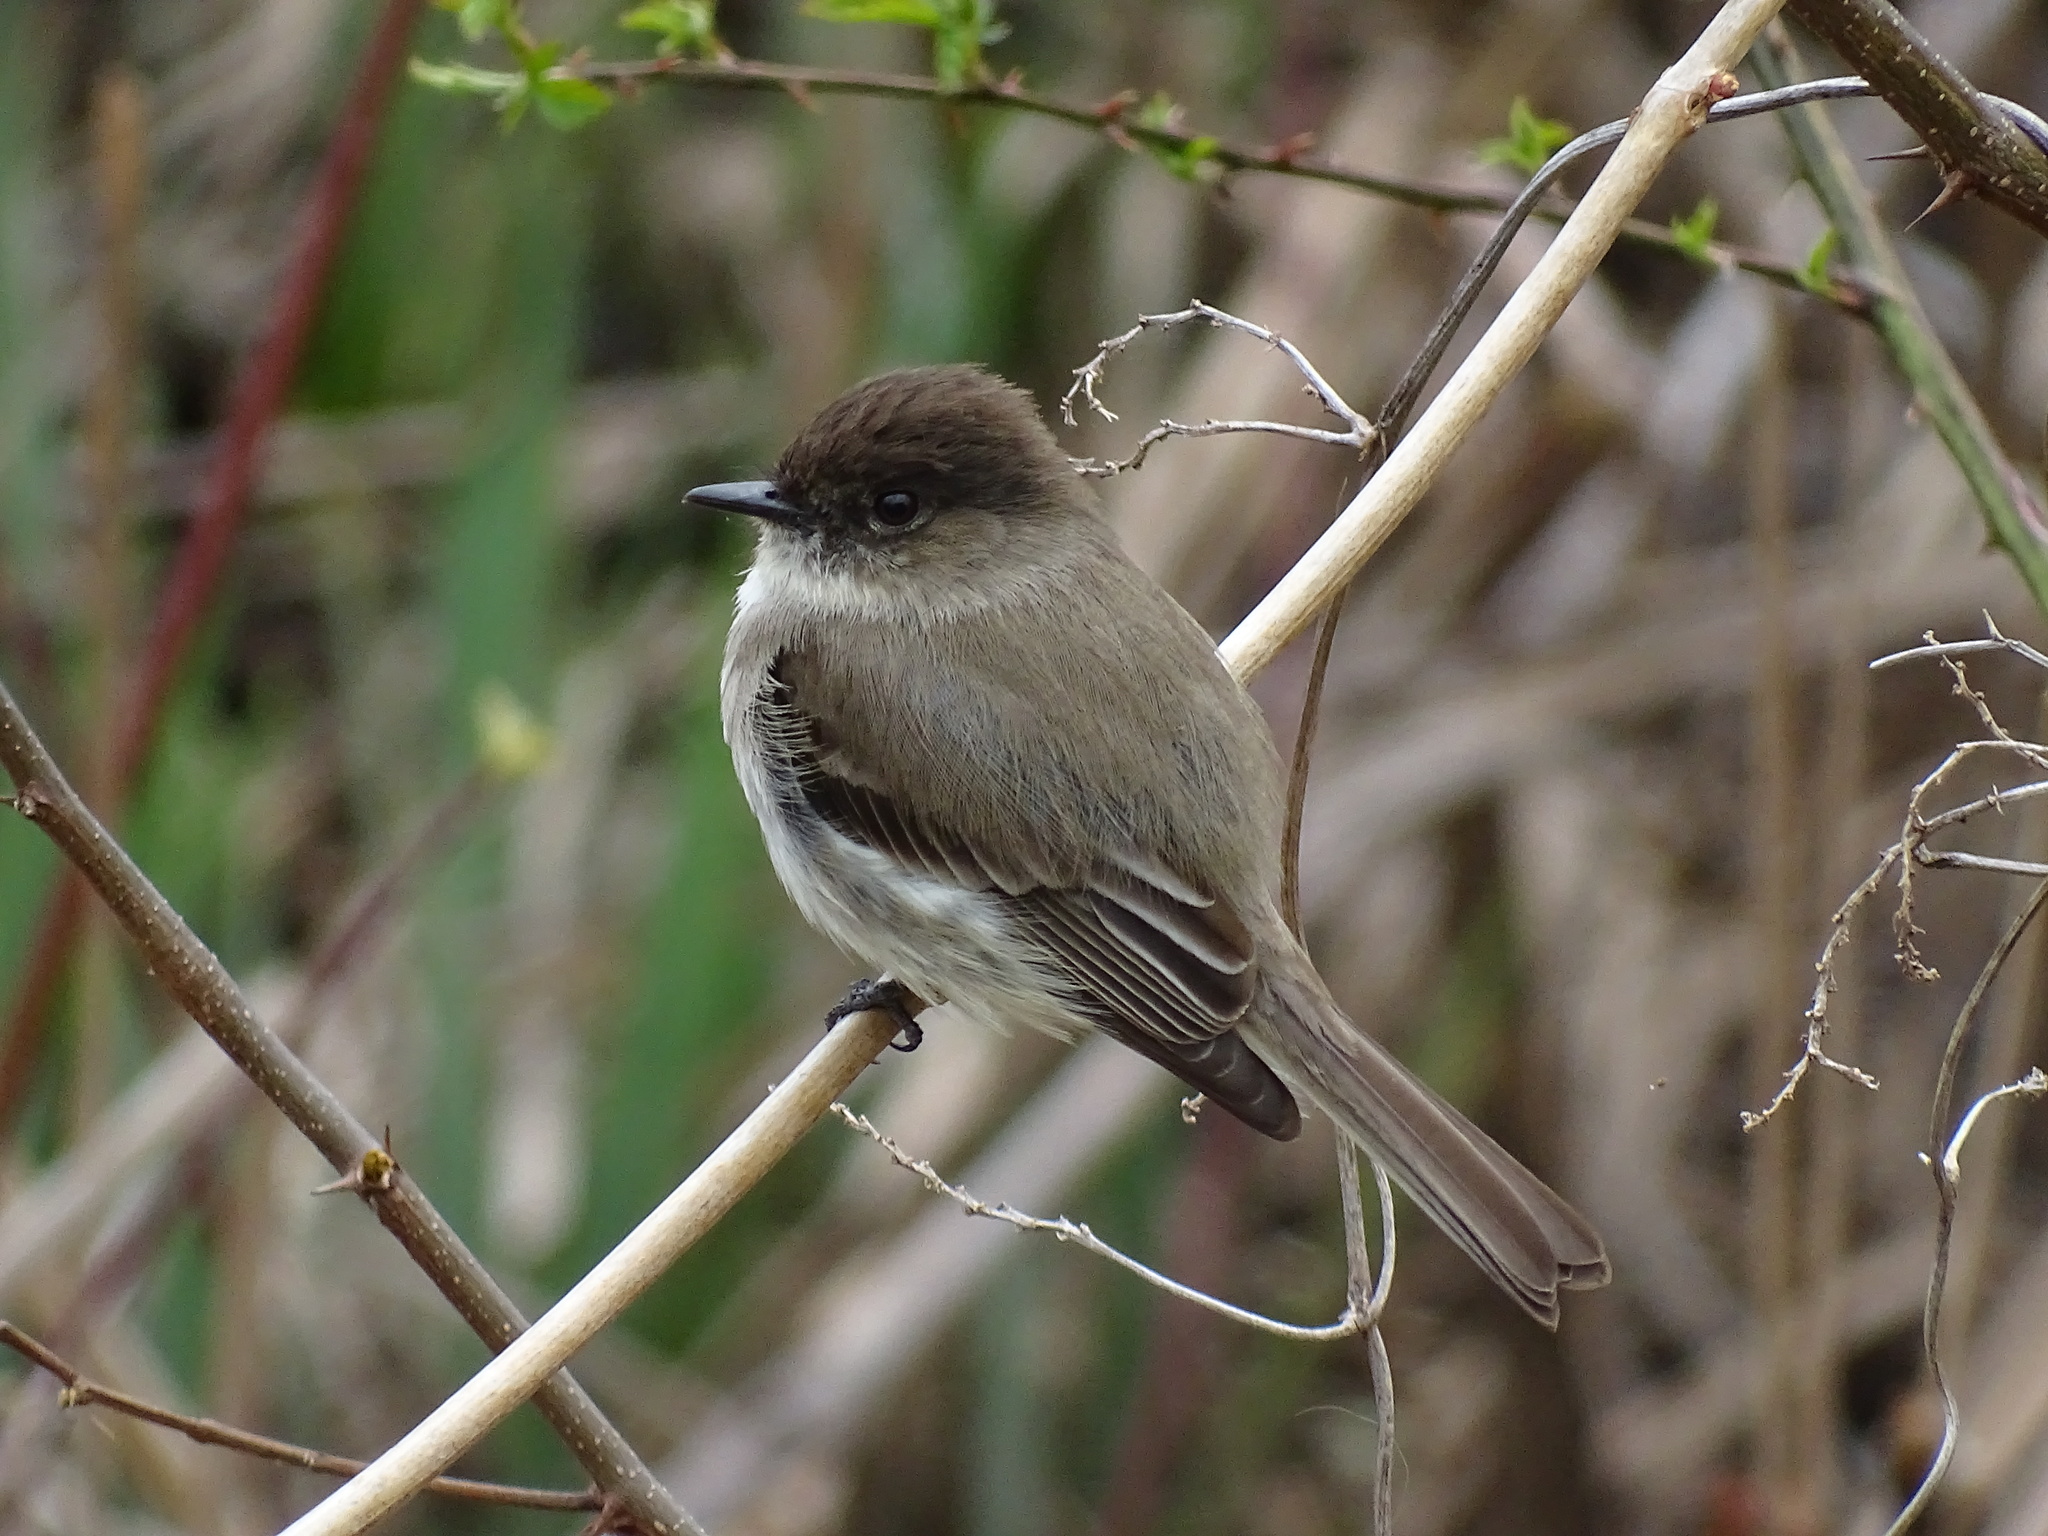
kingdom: Animalia
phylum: Chordata
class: Aves
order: Passeriformes
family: Tyrannidae
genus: Sayornis
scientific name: Sayornis phoebe
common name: Eastern phoebe
